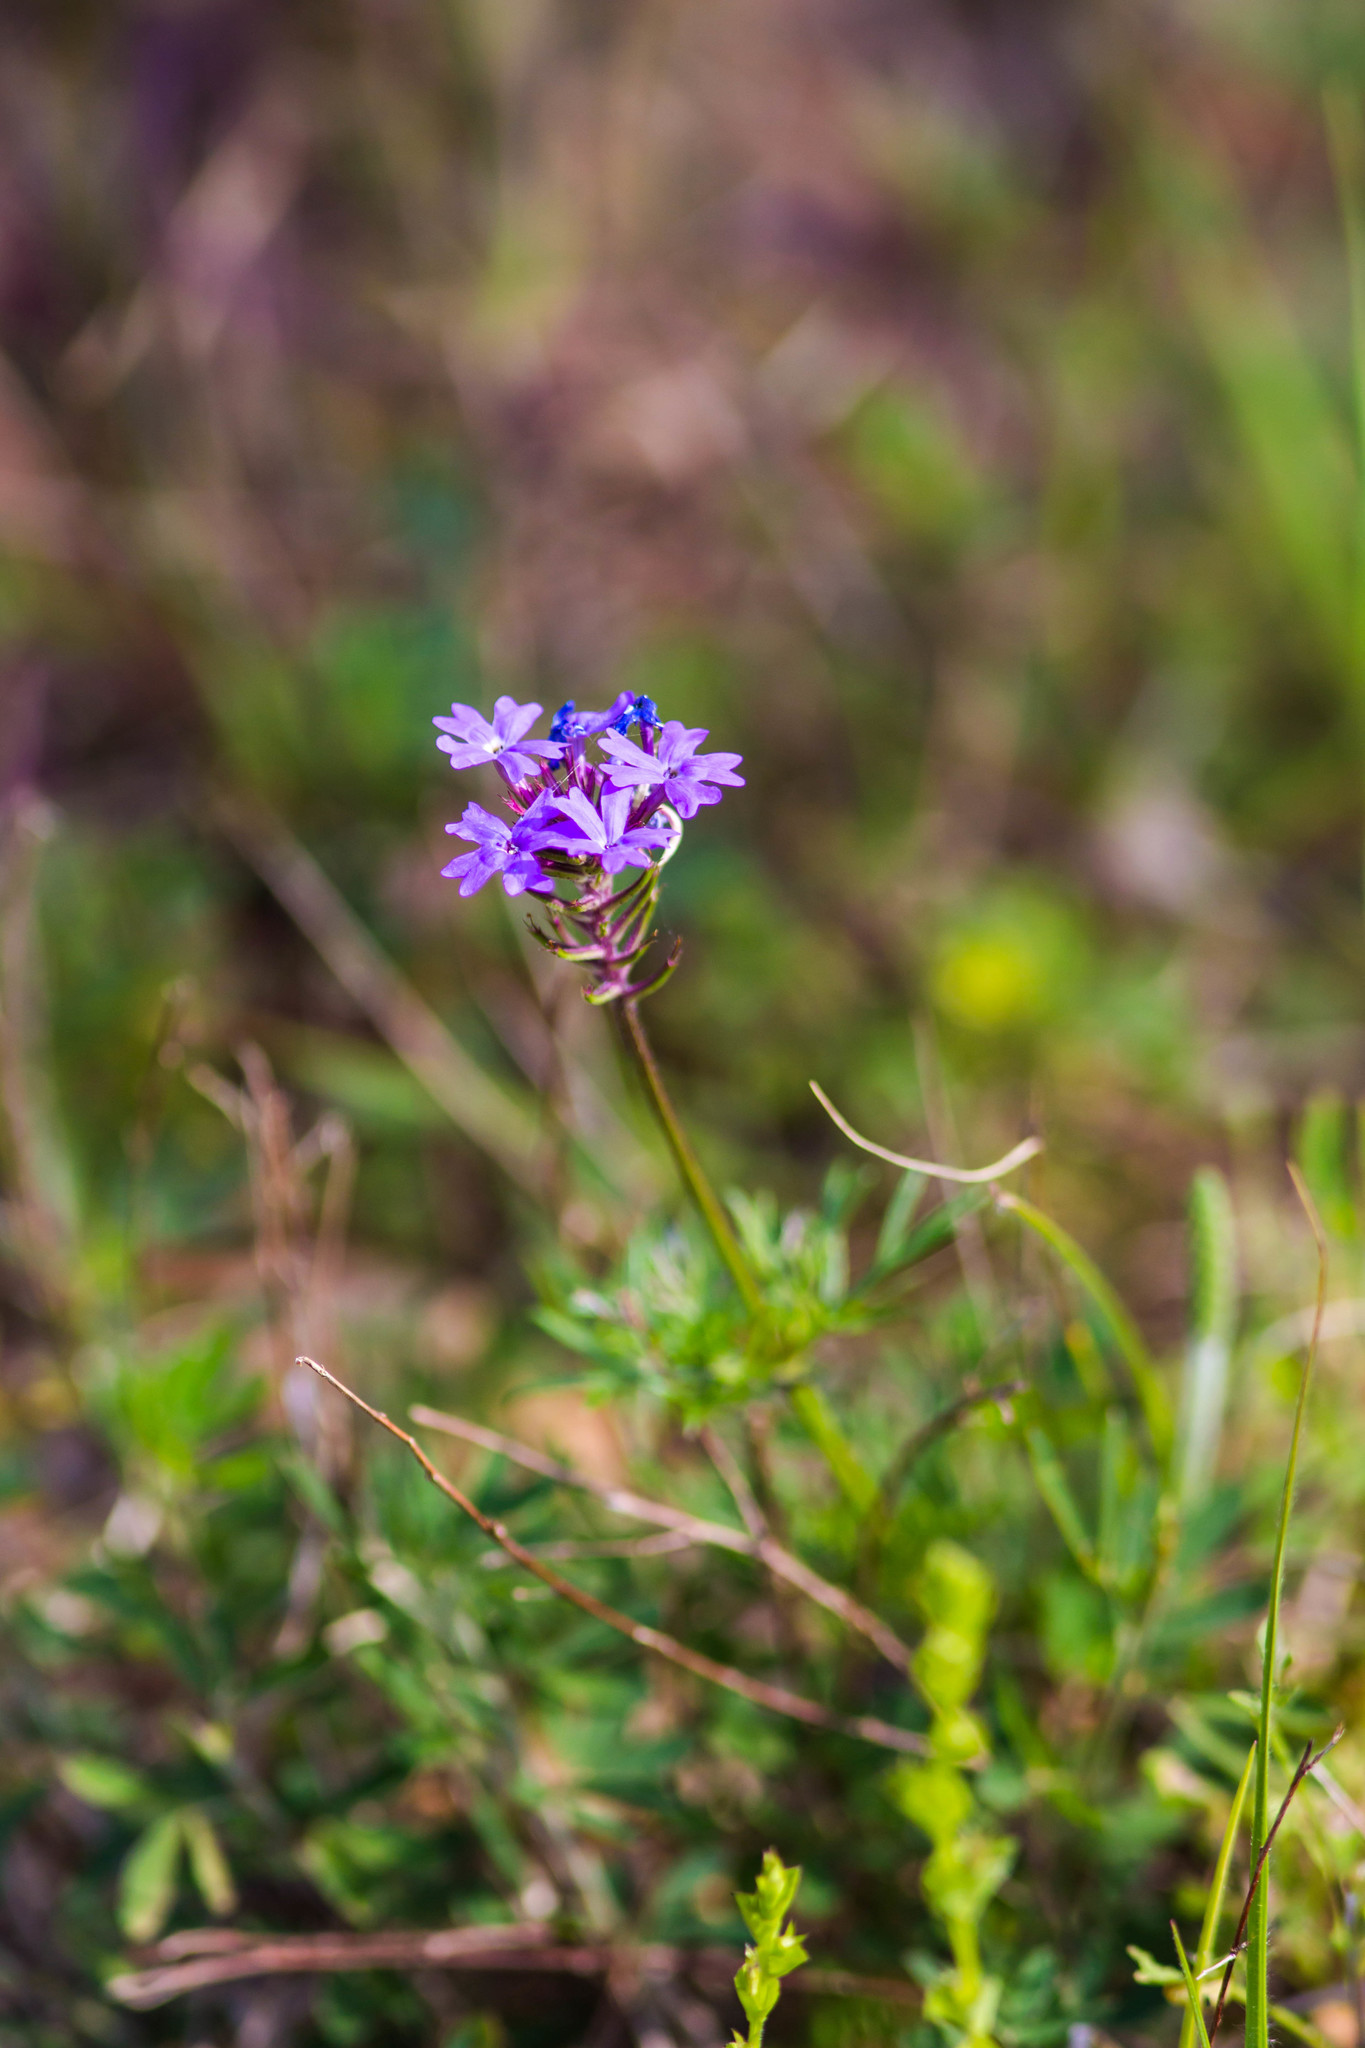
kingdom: Plantae
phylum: Tracheophyta
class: Magnoliopsida
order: Lamiales
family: Verbenaceae
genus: Verbena
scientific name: Verbena aristigera
